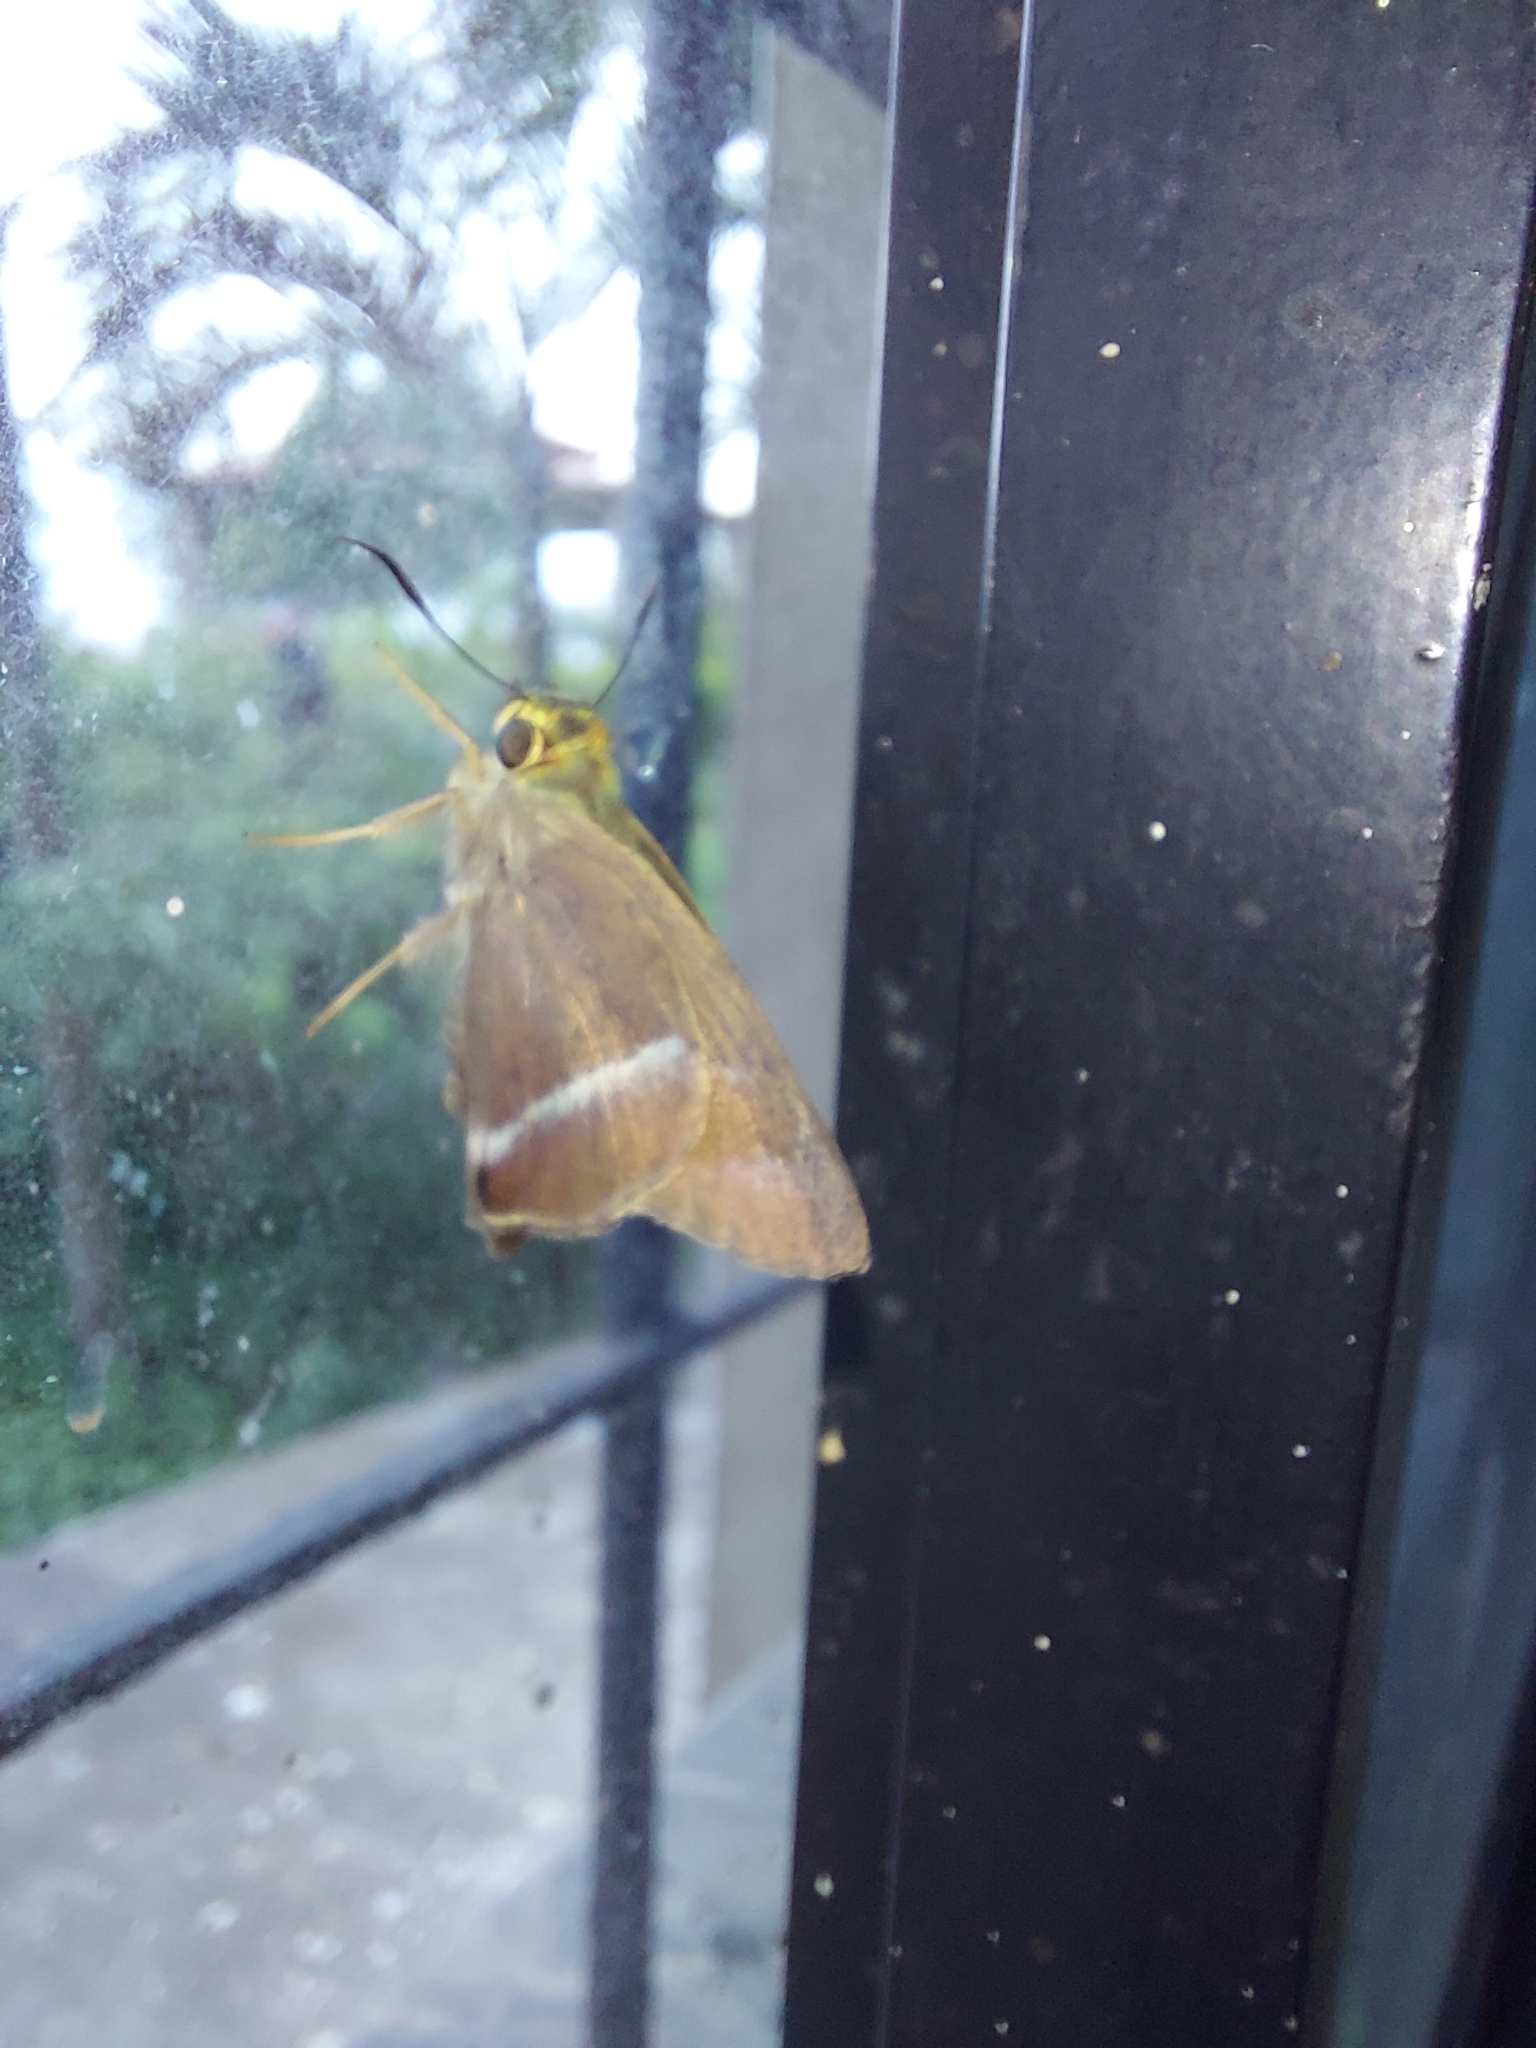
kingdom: Animalia
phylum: Arthropoda
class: Insecta
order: Lepidoptera
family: Hesperiidae
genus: Hasora
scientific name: Hasora chromus
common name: Common banded awl
